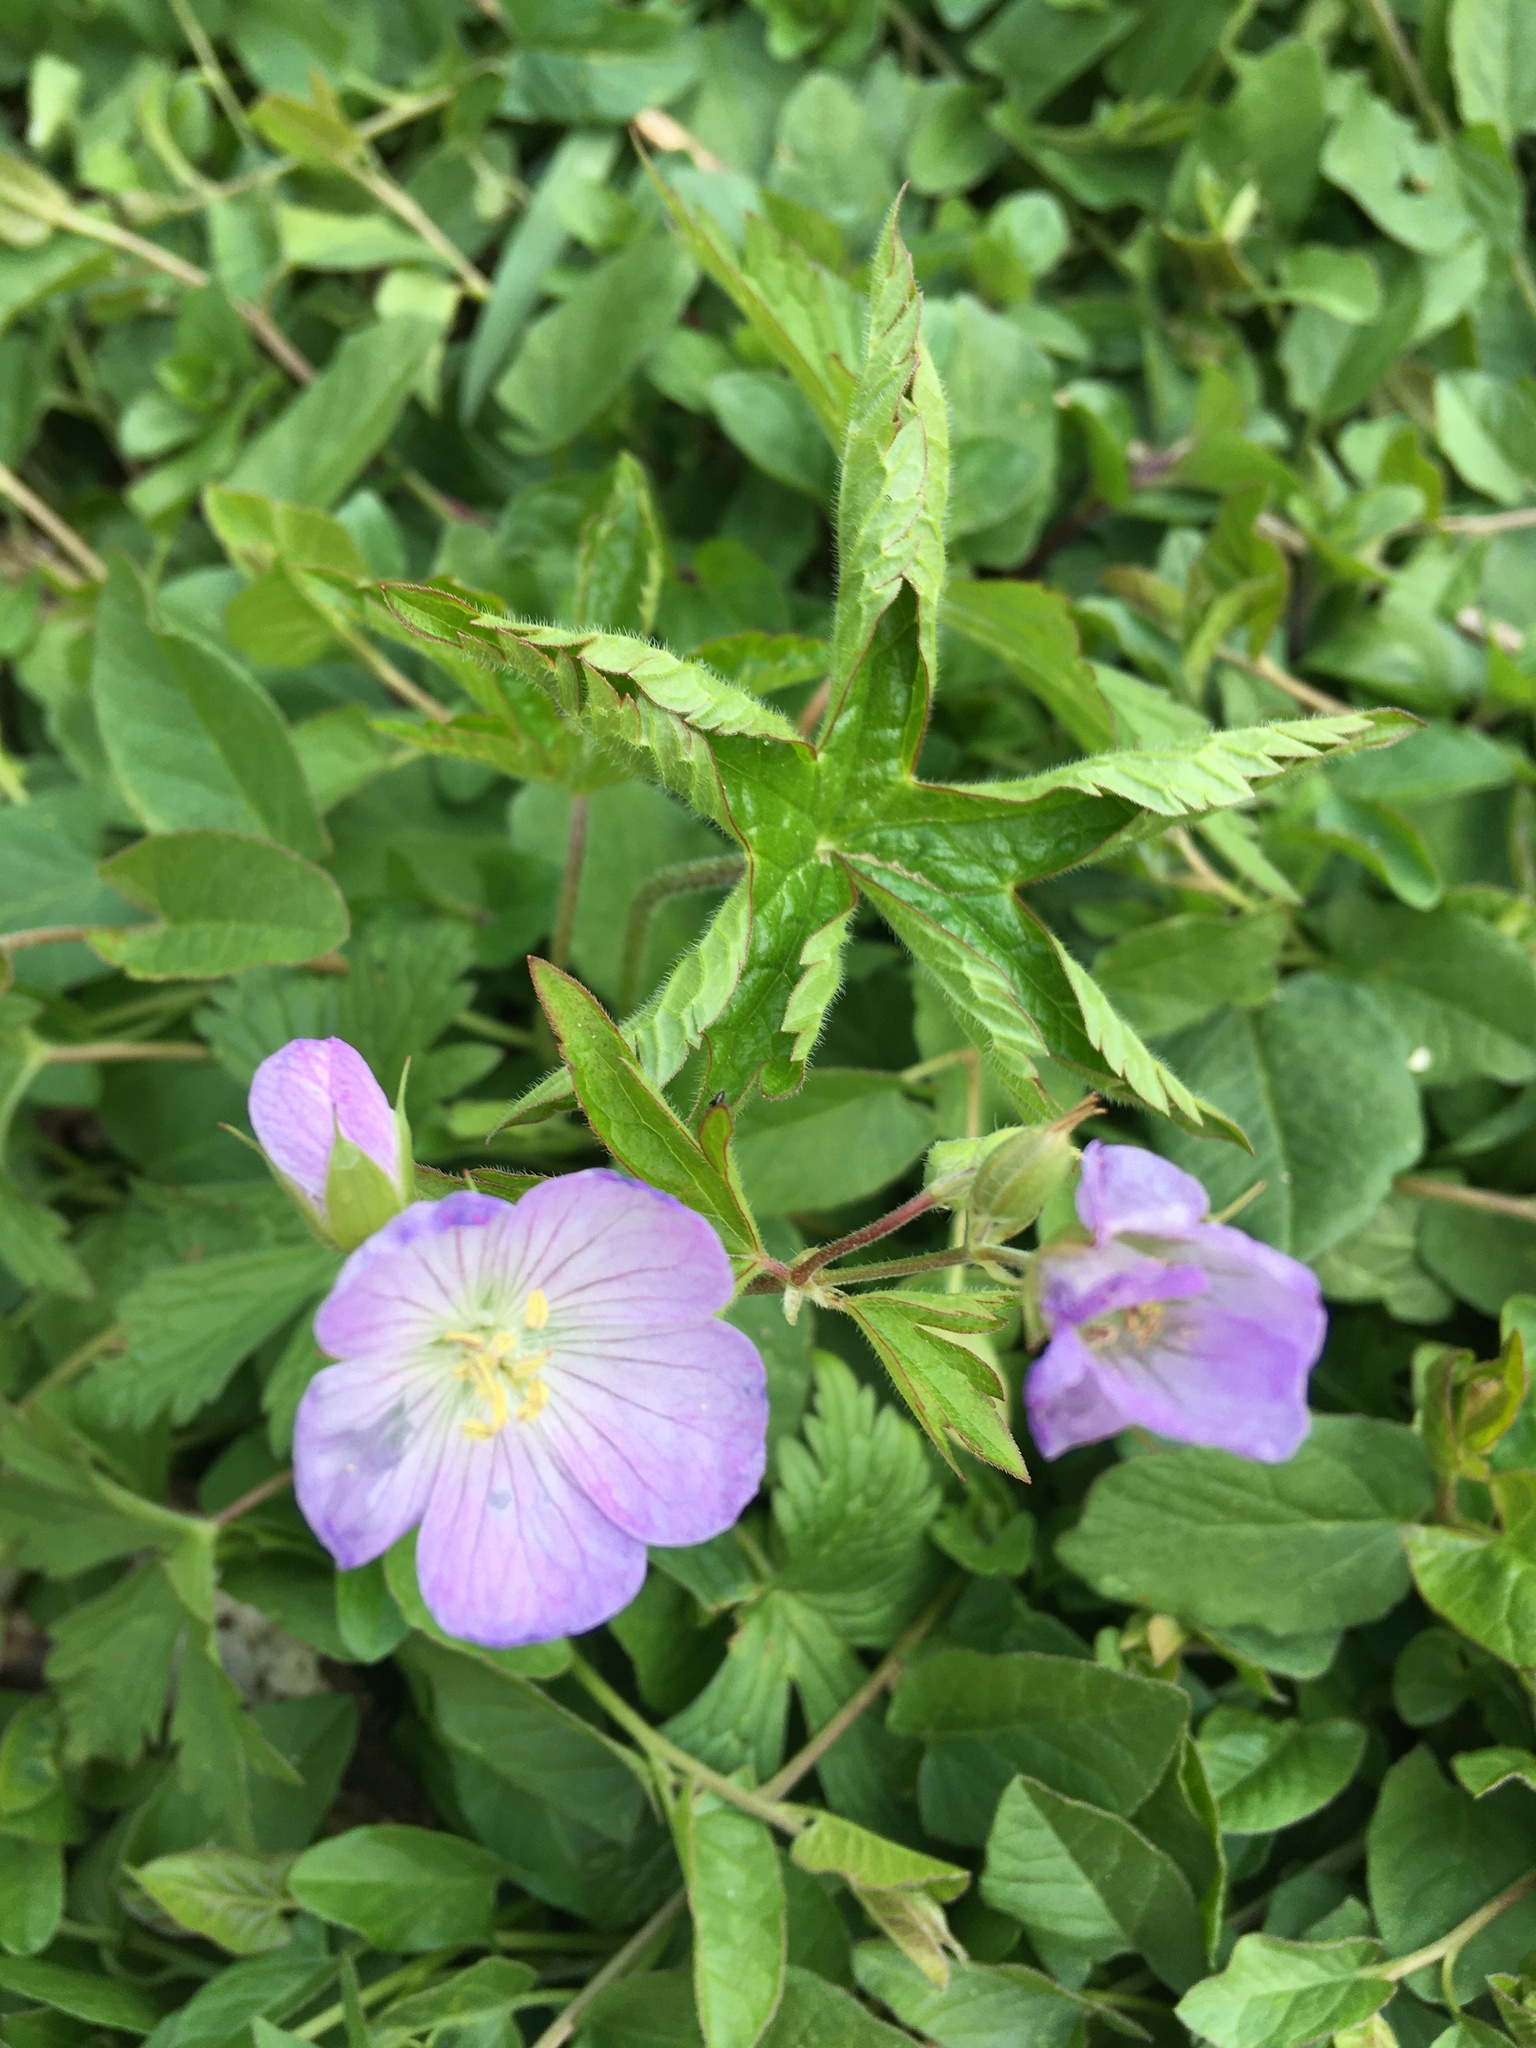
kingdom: Plantae
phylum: Tracheophyta
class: Magnoliopsida
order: Geraniales
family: Geraniaceae
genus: Geranium
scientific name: Geranium maculatum
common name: Spotted geranium
